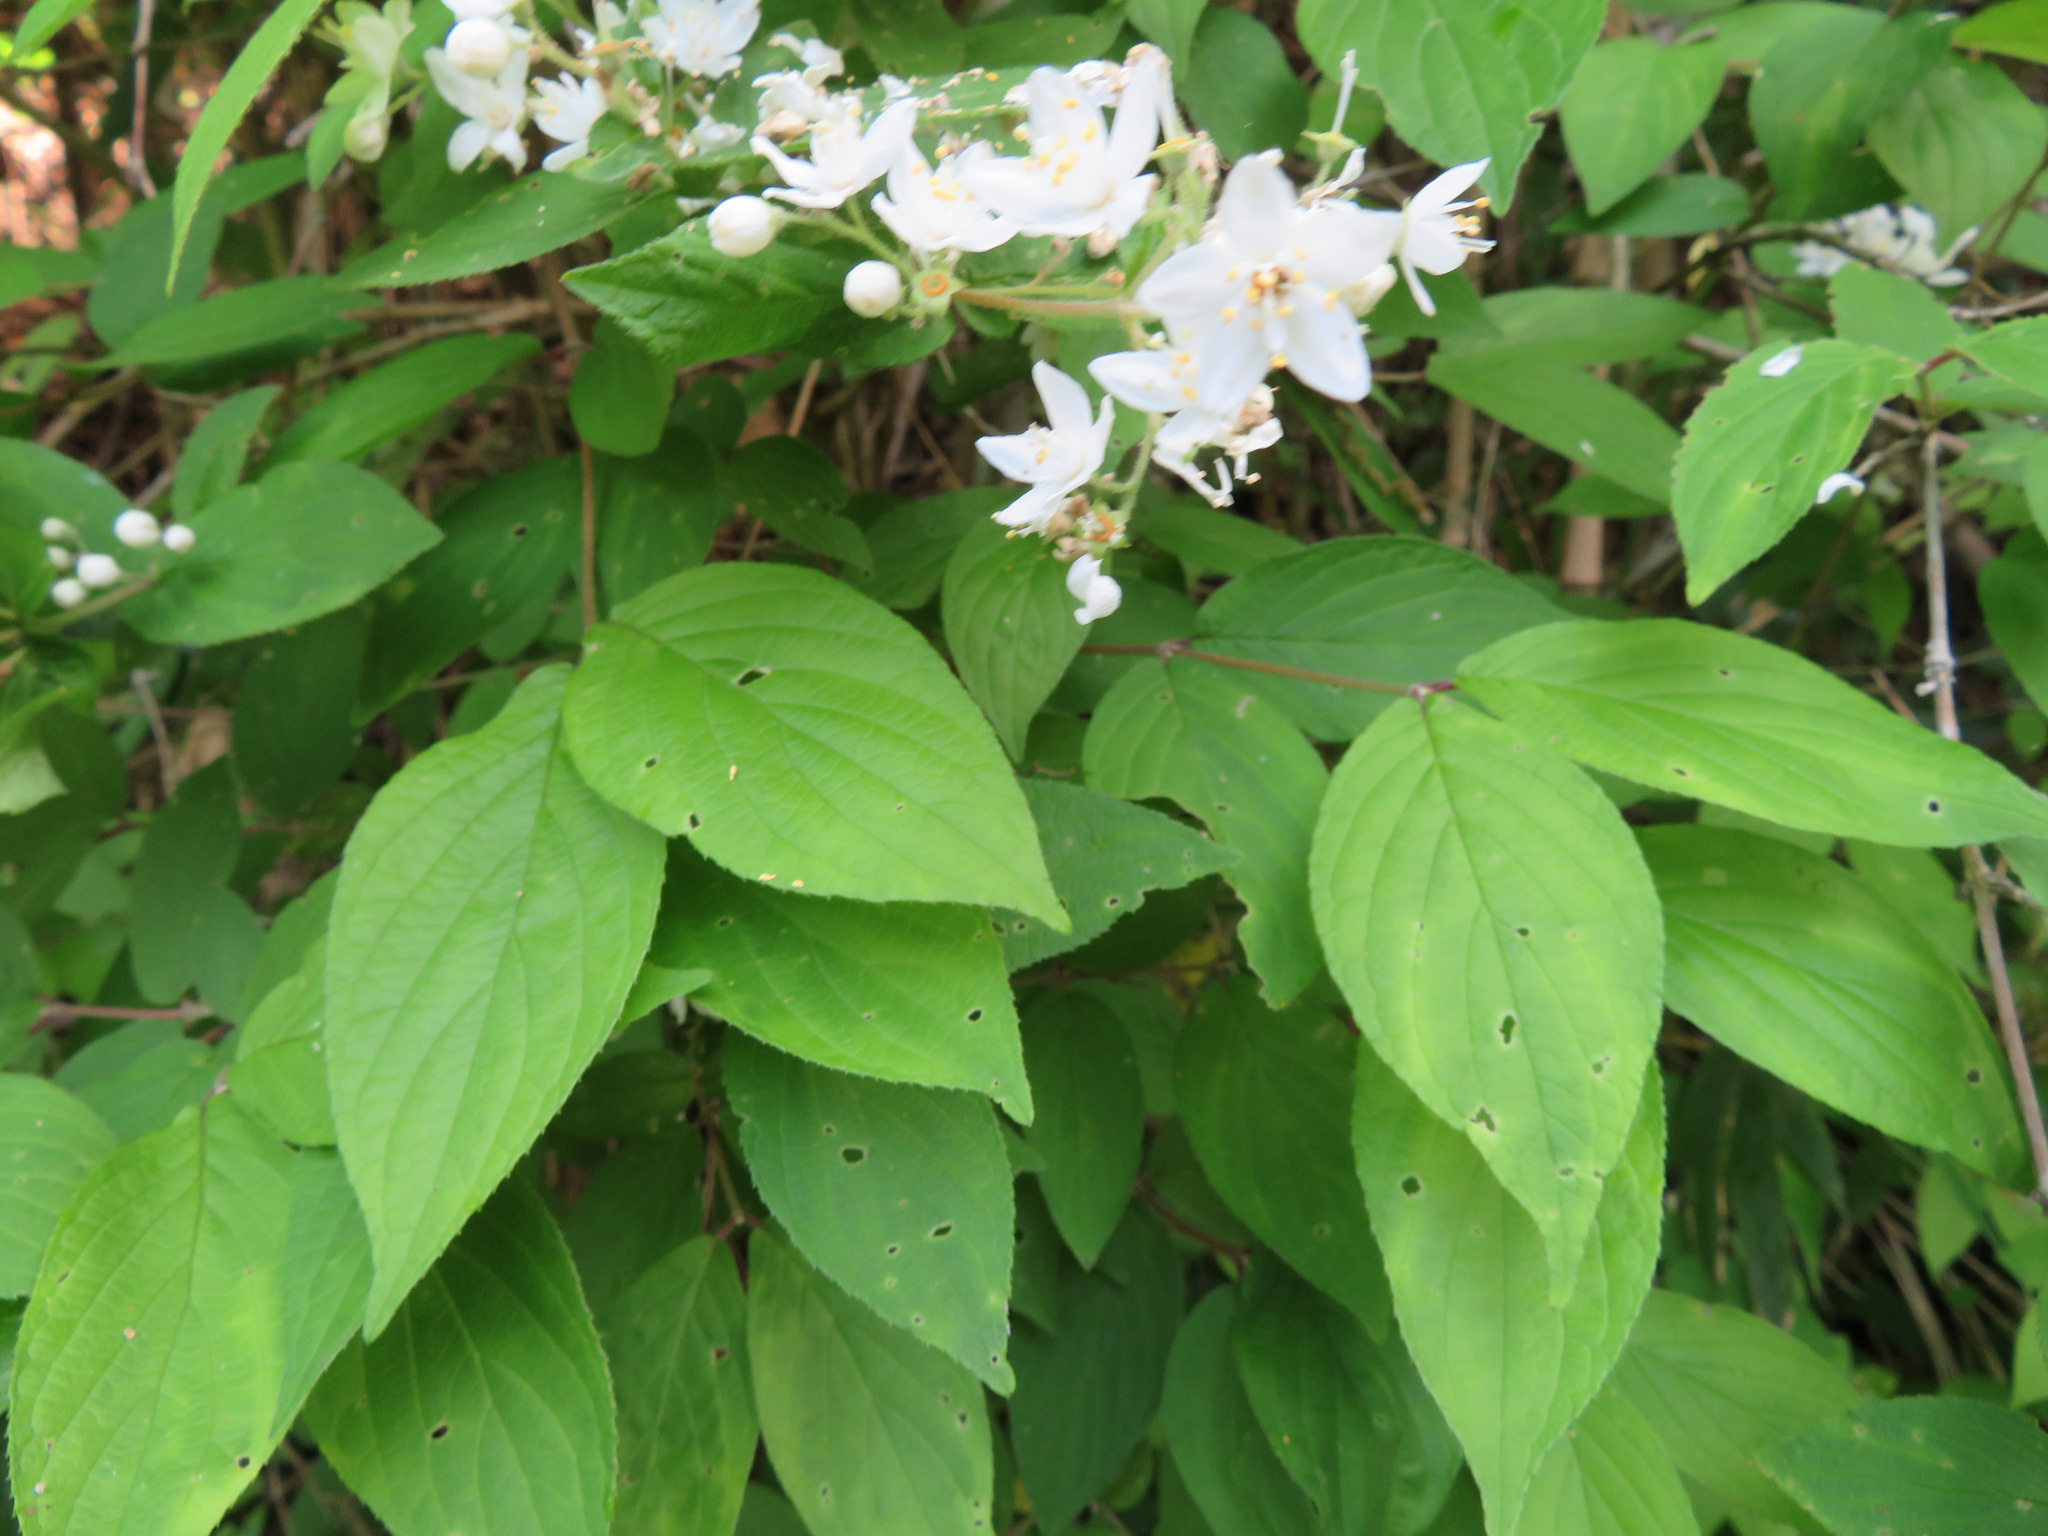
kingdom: Plantae
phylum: Tracheophyta
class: Magnoliopsida
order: Cornales
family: Hydrangeaceae
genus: Deutzia
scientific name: Deutzia scabra
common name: Deutzia
